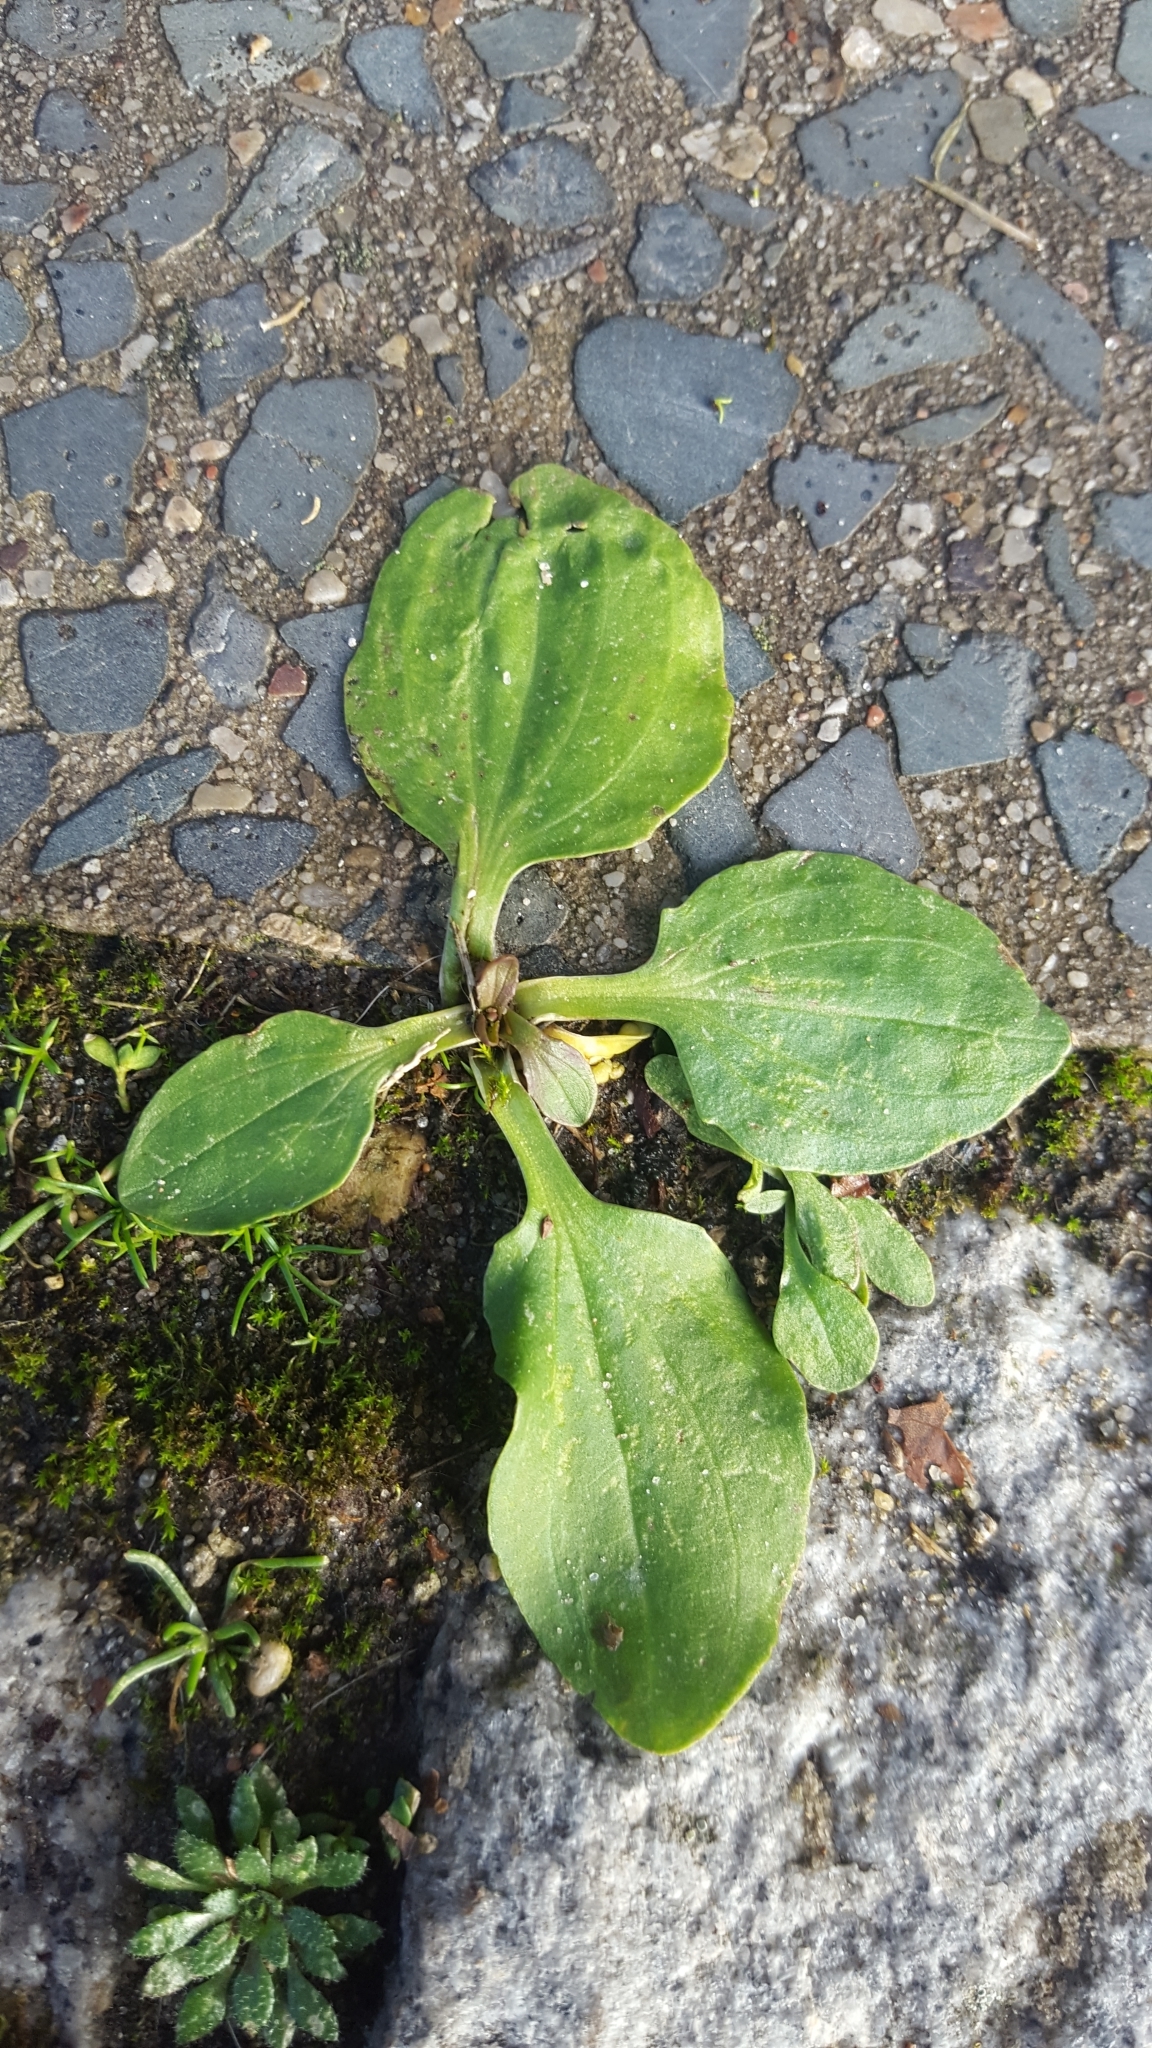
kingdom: Plantae
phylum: Tracheophyta
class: Magnoliopsida
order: Lamiales
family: Plantaginaceae
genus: Plantago
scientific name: Plantago major
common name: Common plantain
